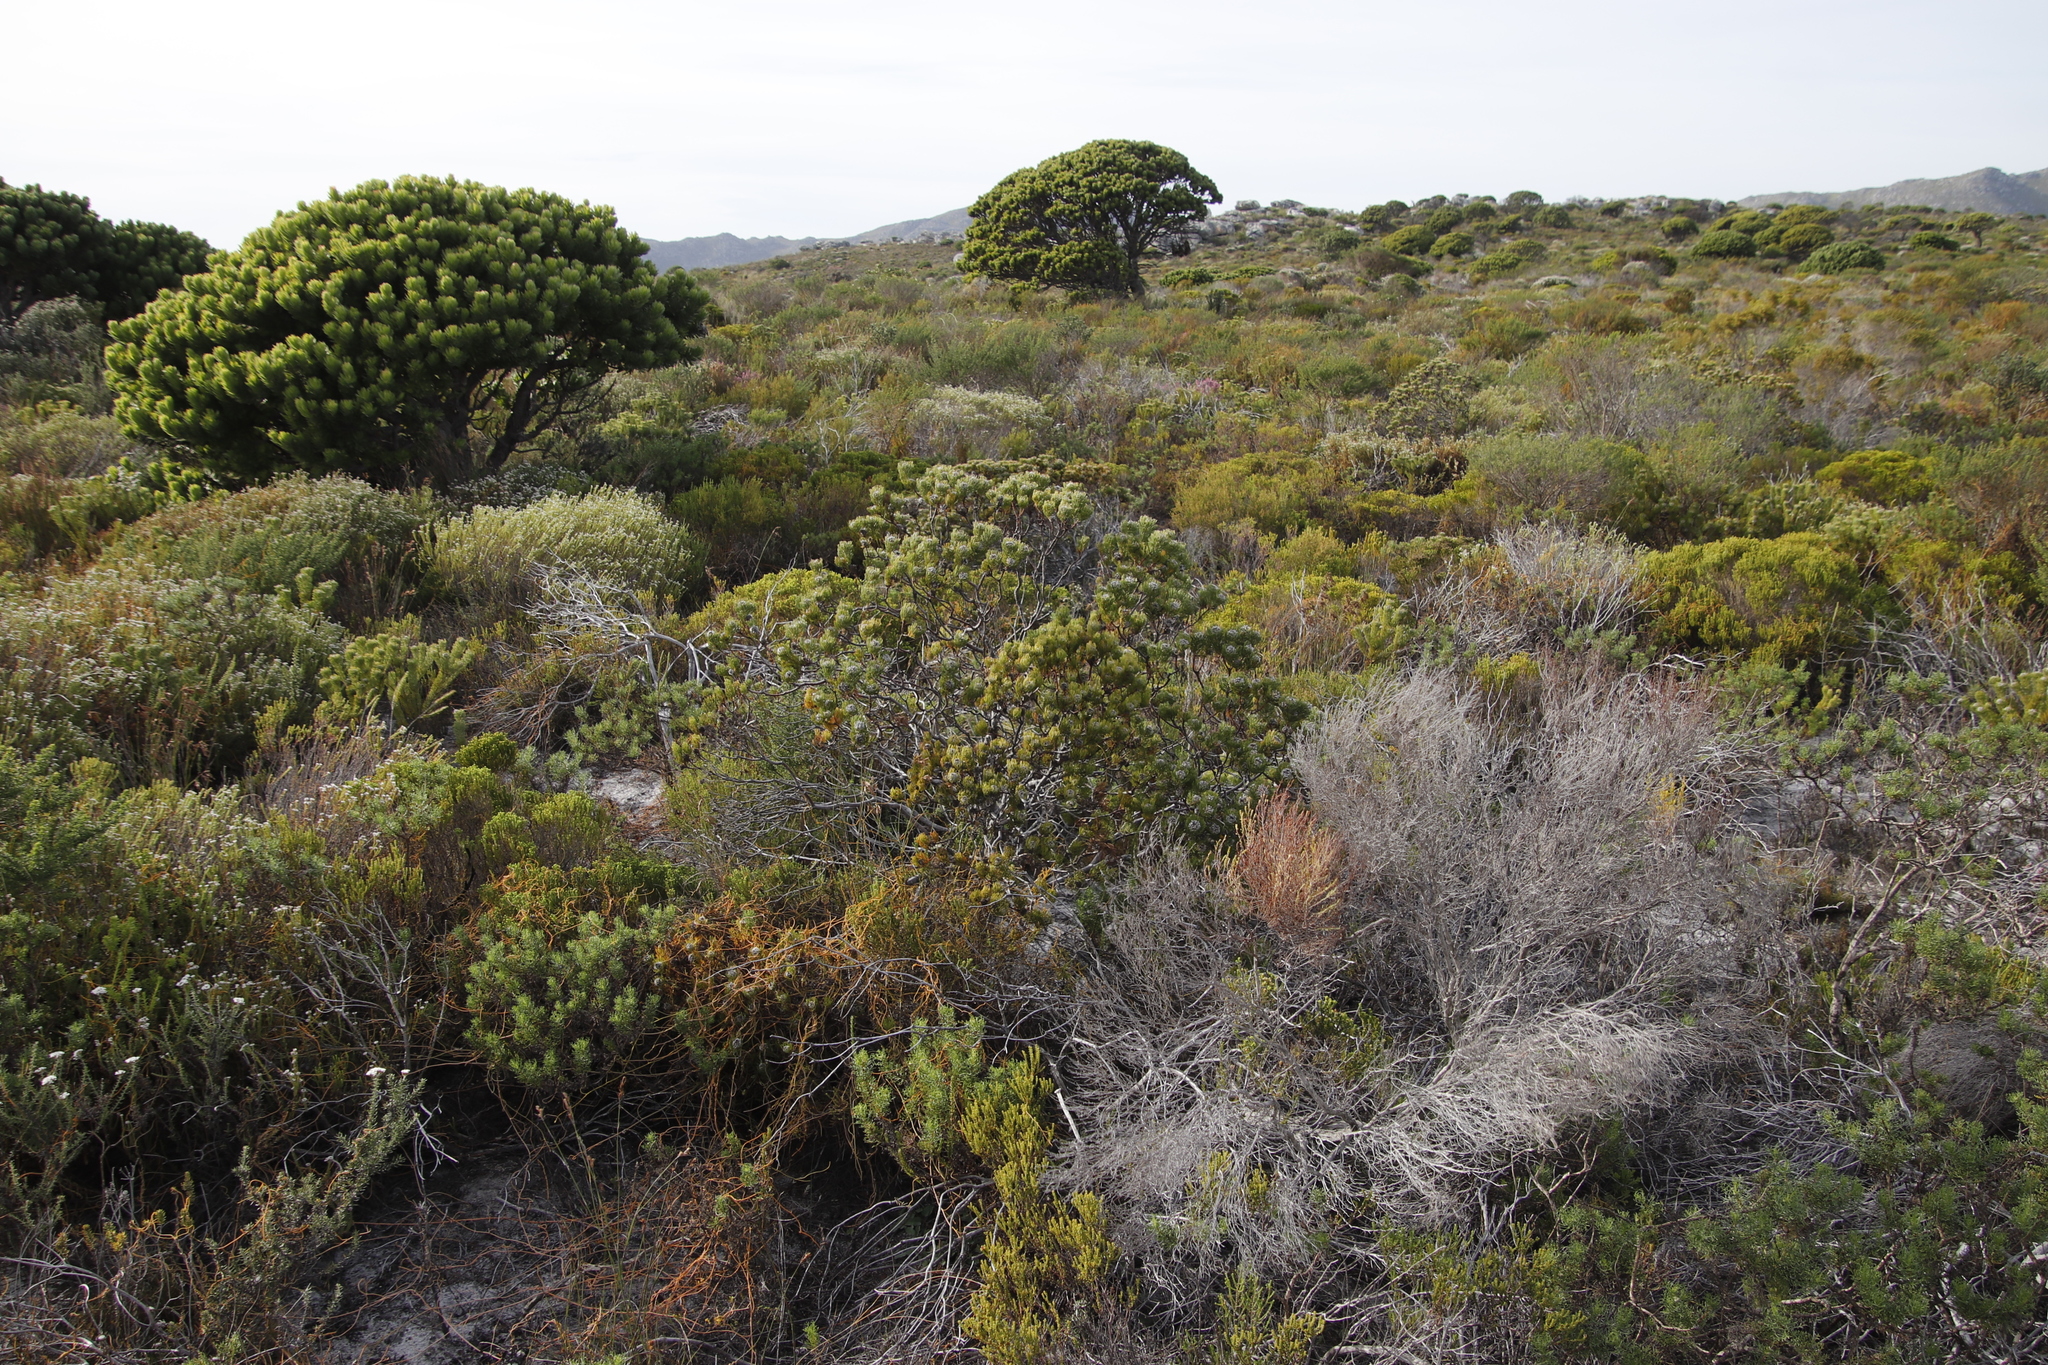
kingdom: Plantae
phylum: Tracheophyta
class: Magnoliopsida
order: Proteales
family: Proteaceae
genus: Serruria
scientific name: Serruria villosa
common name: Golden spiderhead
